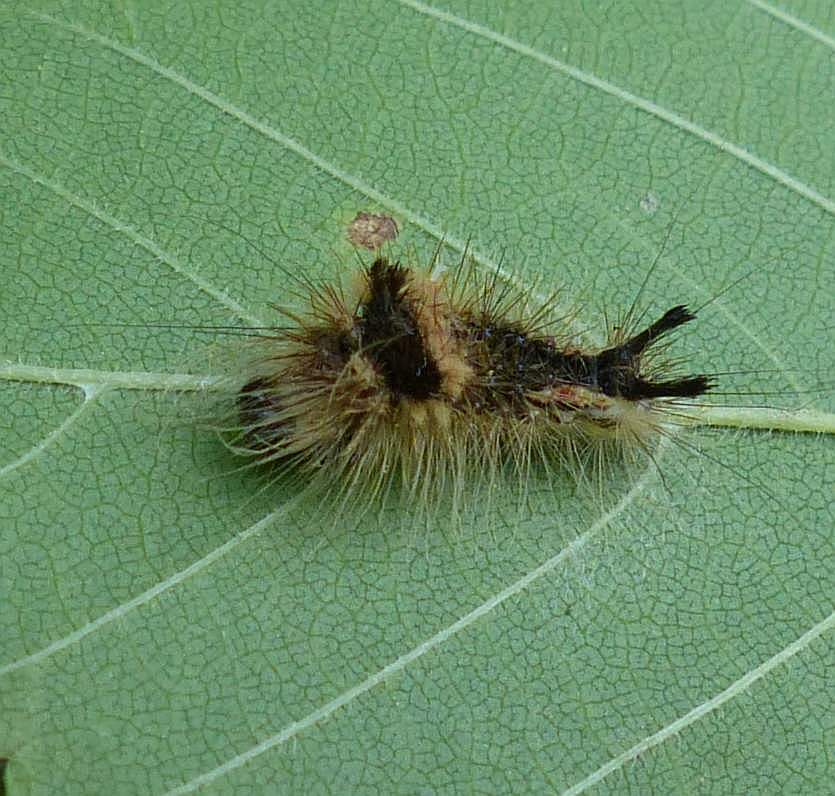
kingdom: Animalia
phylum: Arthropoda
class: Insecta
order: Lepidoptera
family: Noctuidae
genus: Acronicta
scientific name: Acronicta impleta
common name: Powdered dagger
